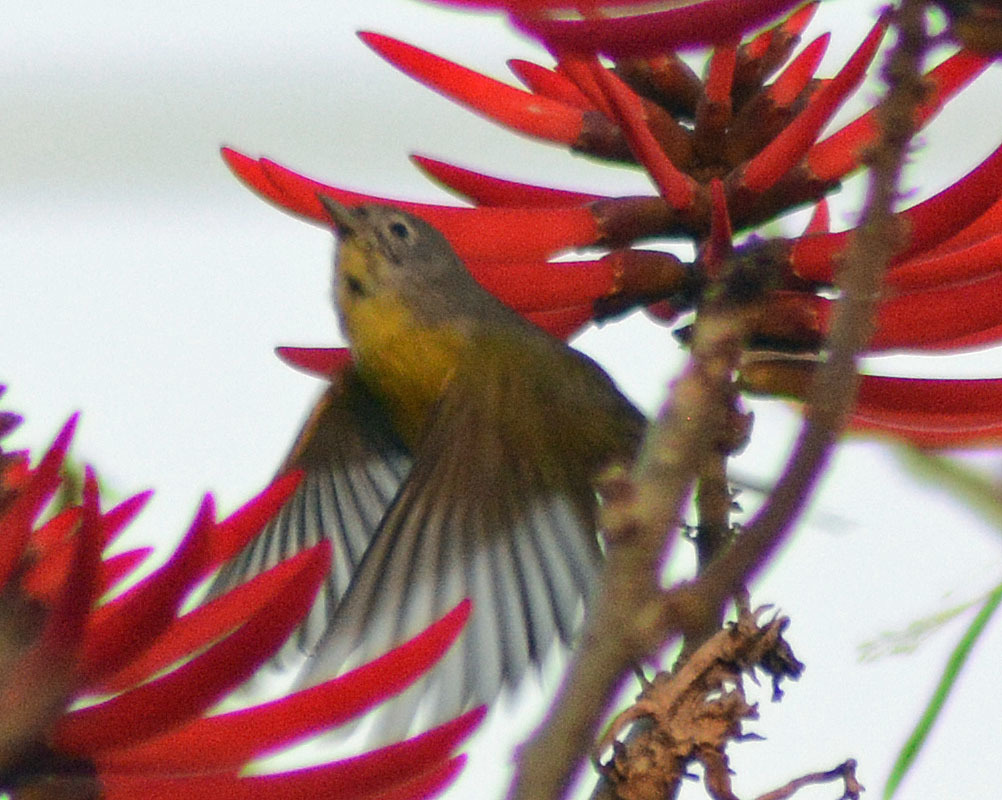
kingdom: Animalia
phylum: Chordata
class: Aves
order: Passeriformes
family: Parulidae
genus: Leiothlypis
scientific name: Leiothlypis ruficapilla
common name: Nashville warbler
